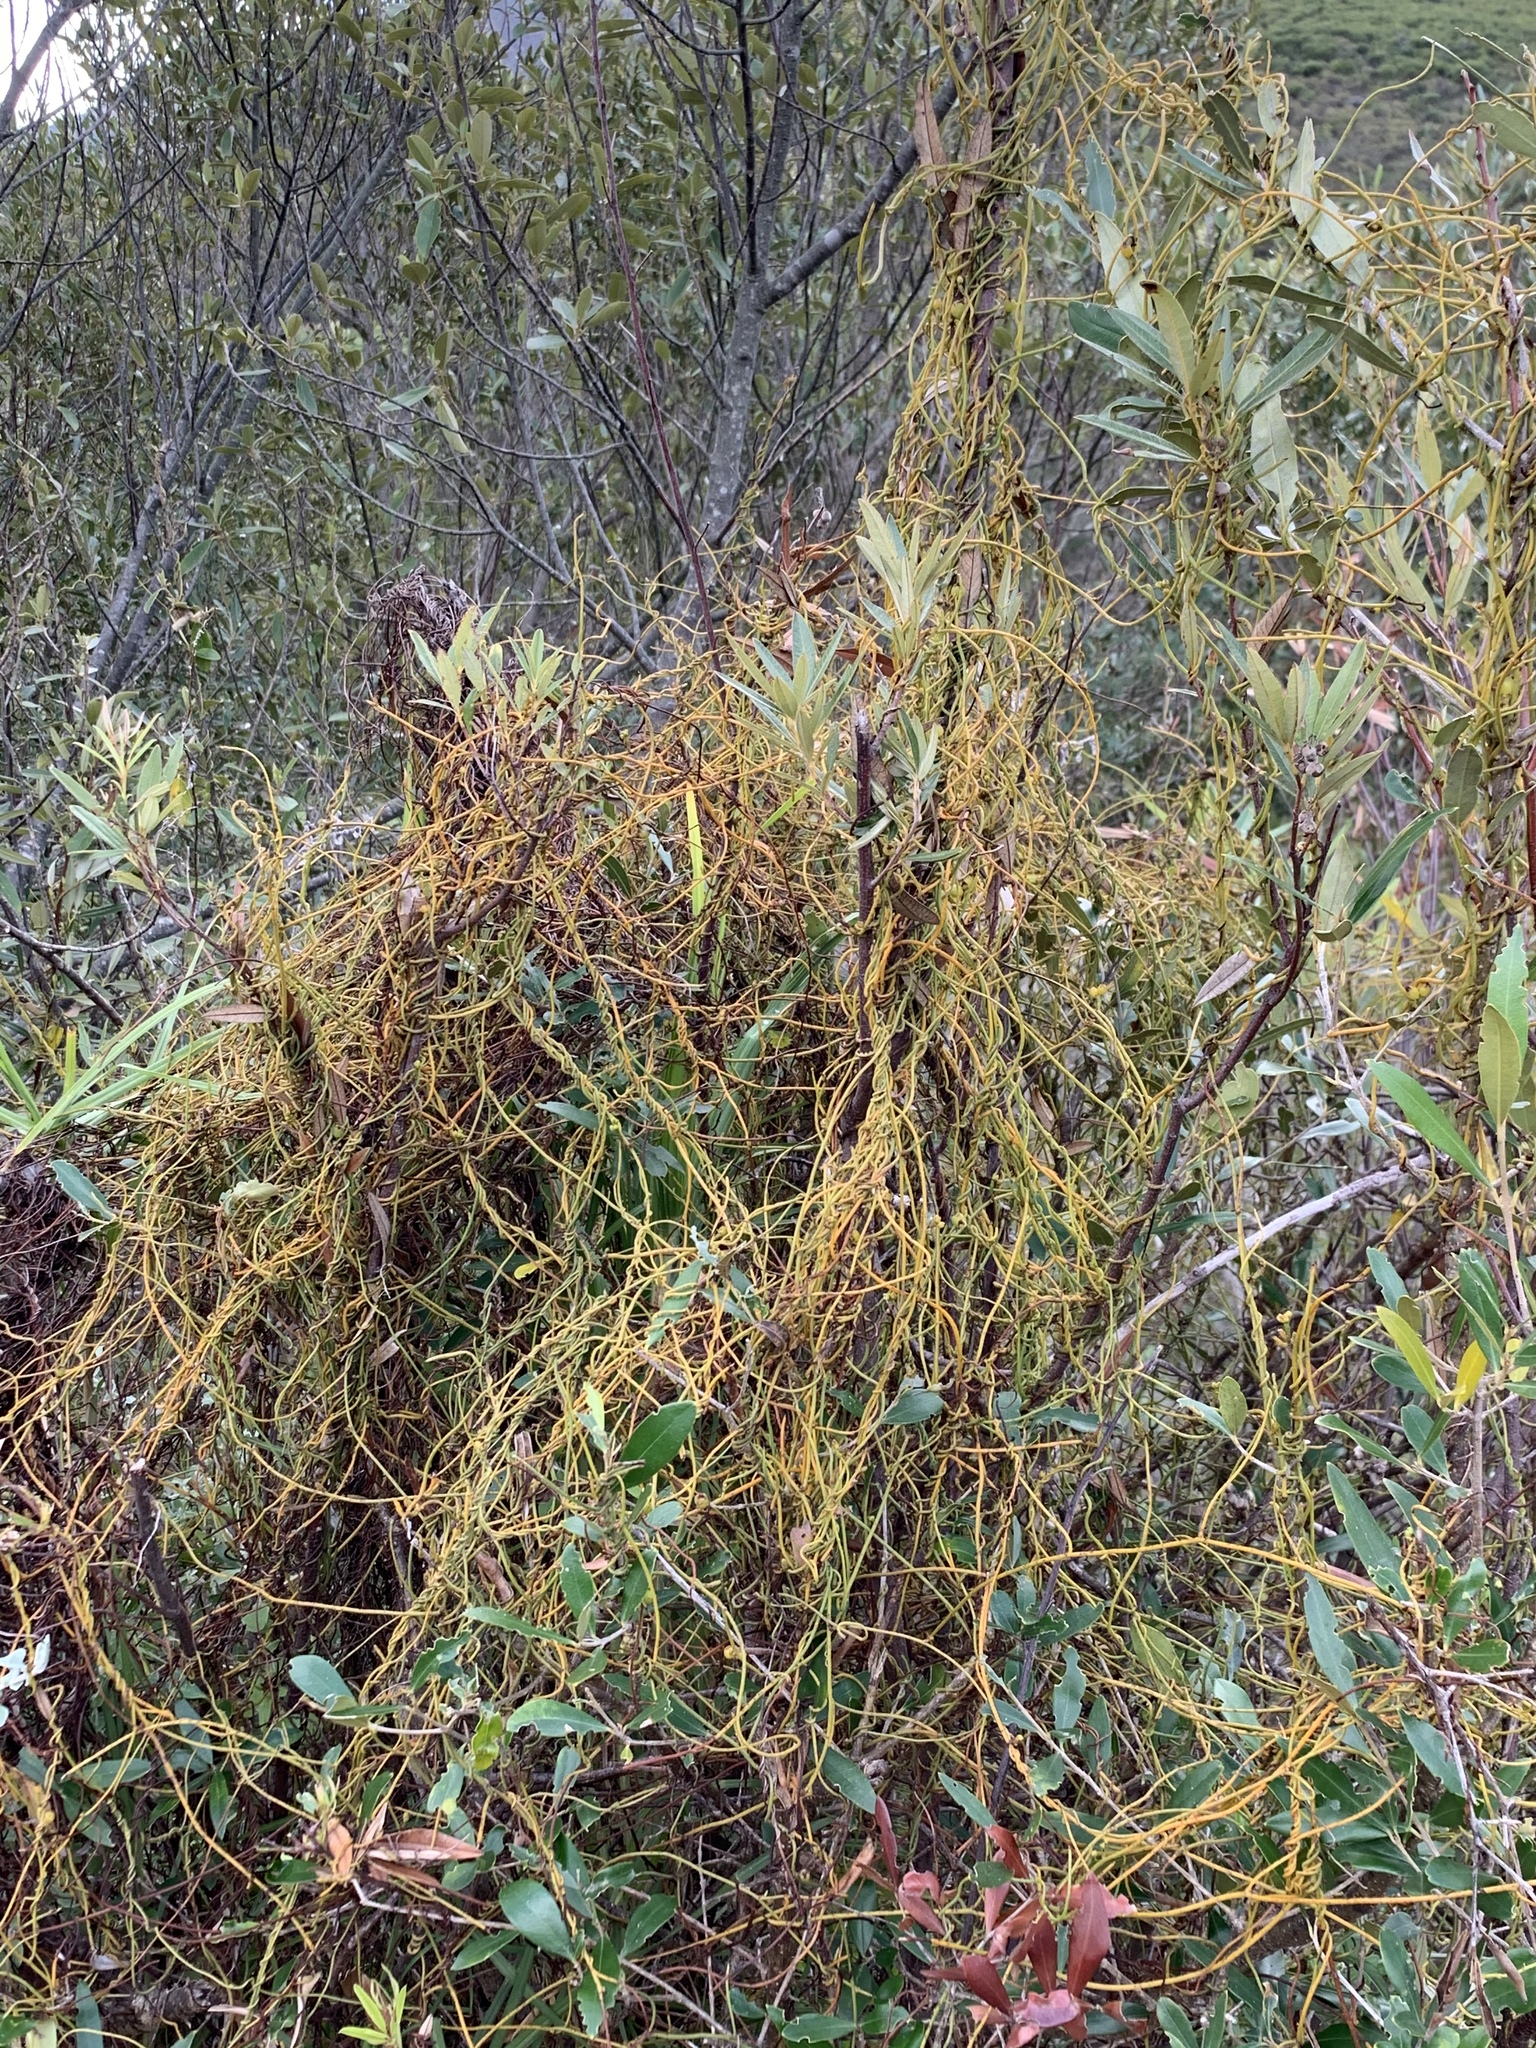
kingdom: Plantae
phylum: Tracheophyta
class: Magnoliopsida
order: Laurales
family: Lauraceae
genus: Cassytha
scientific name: Cassytha ciliolata
